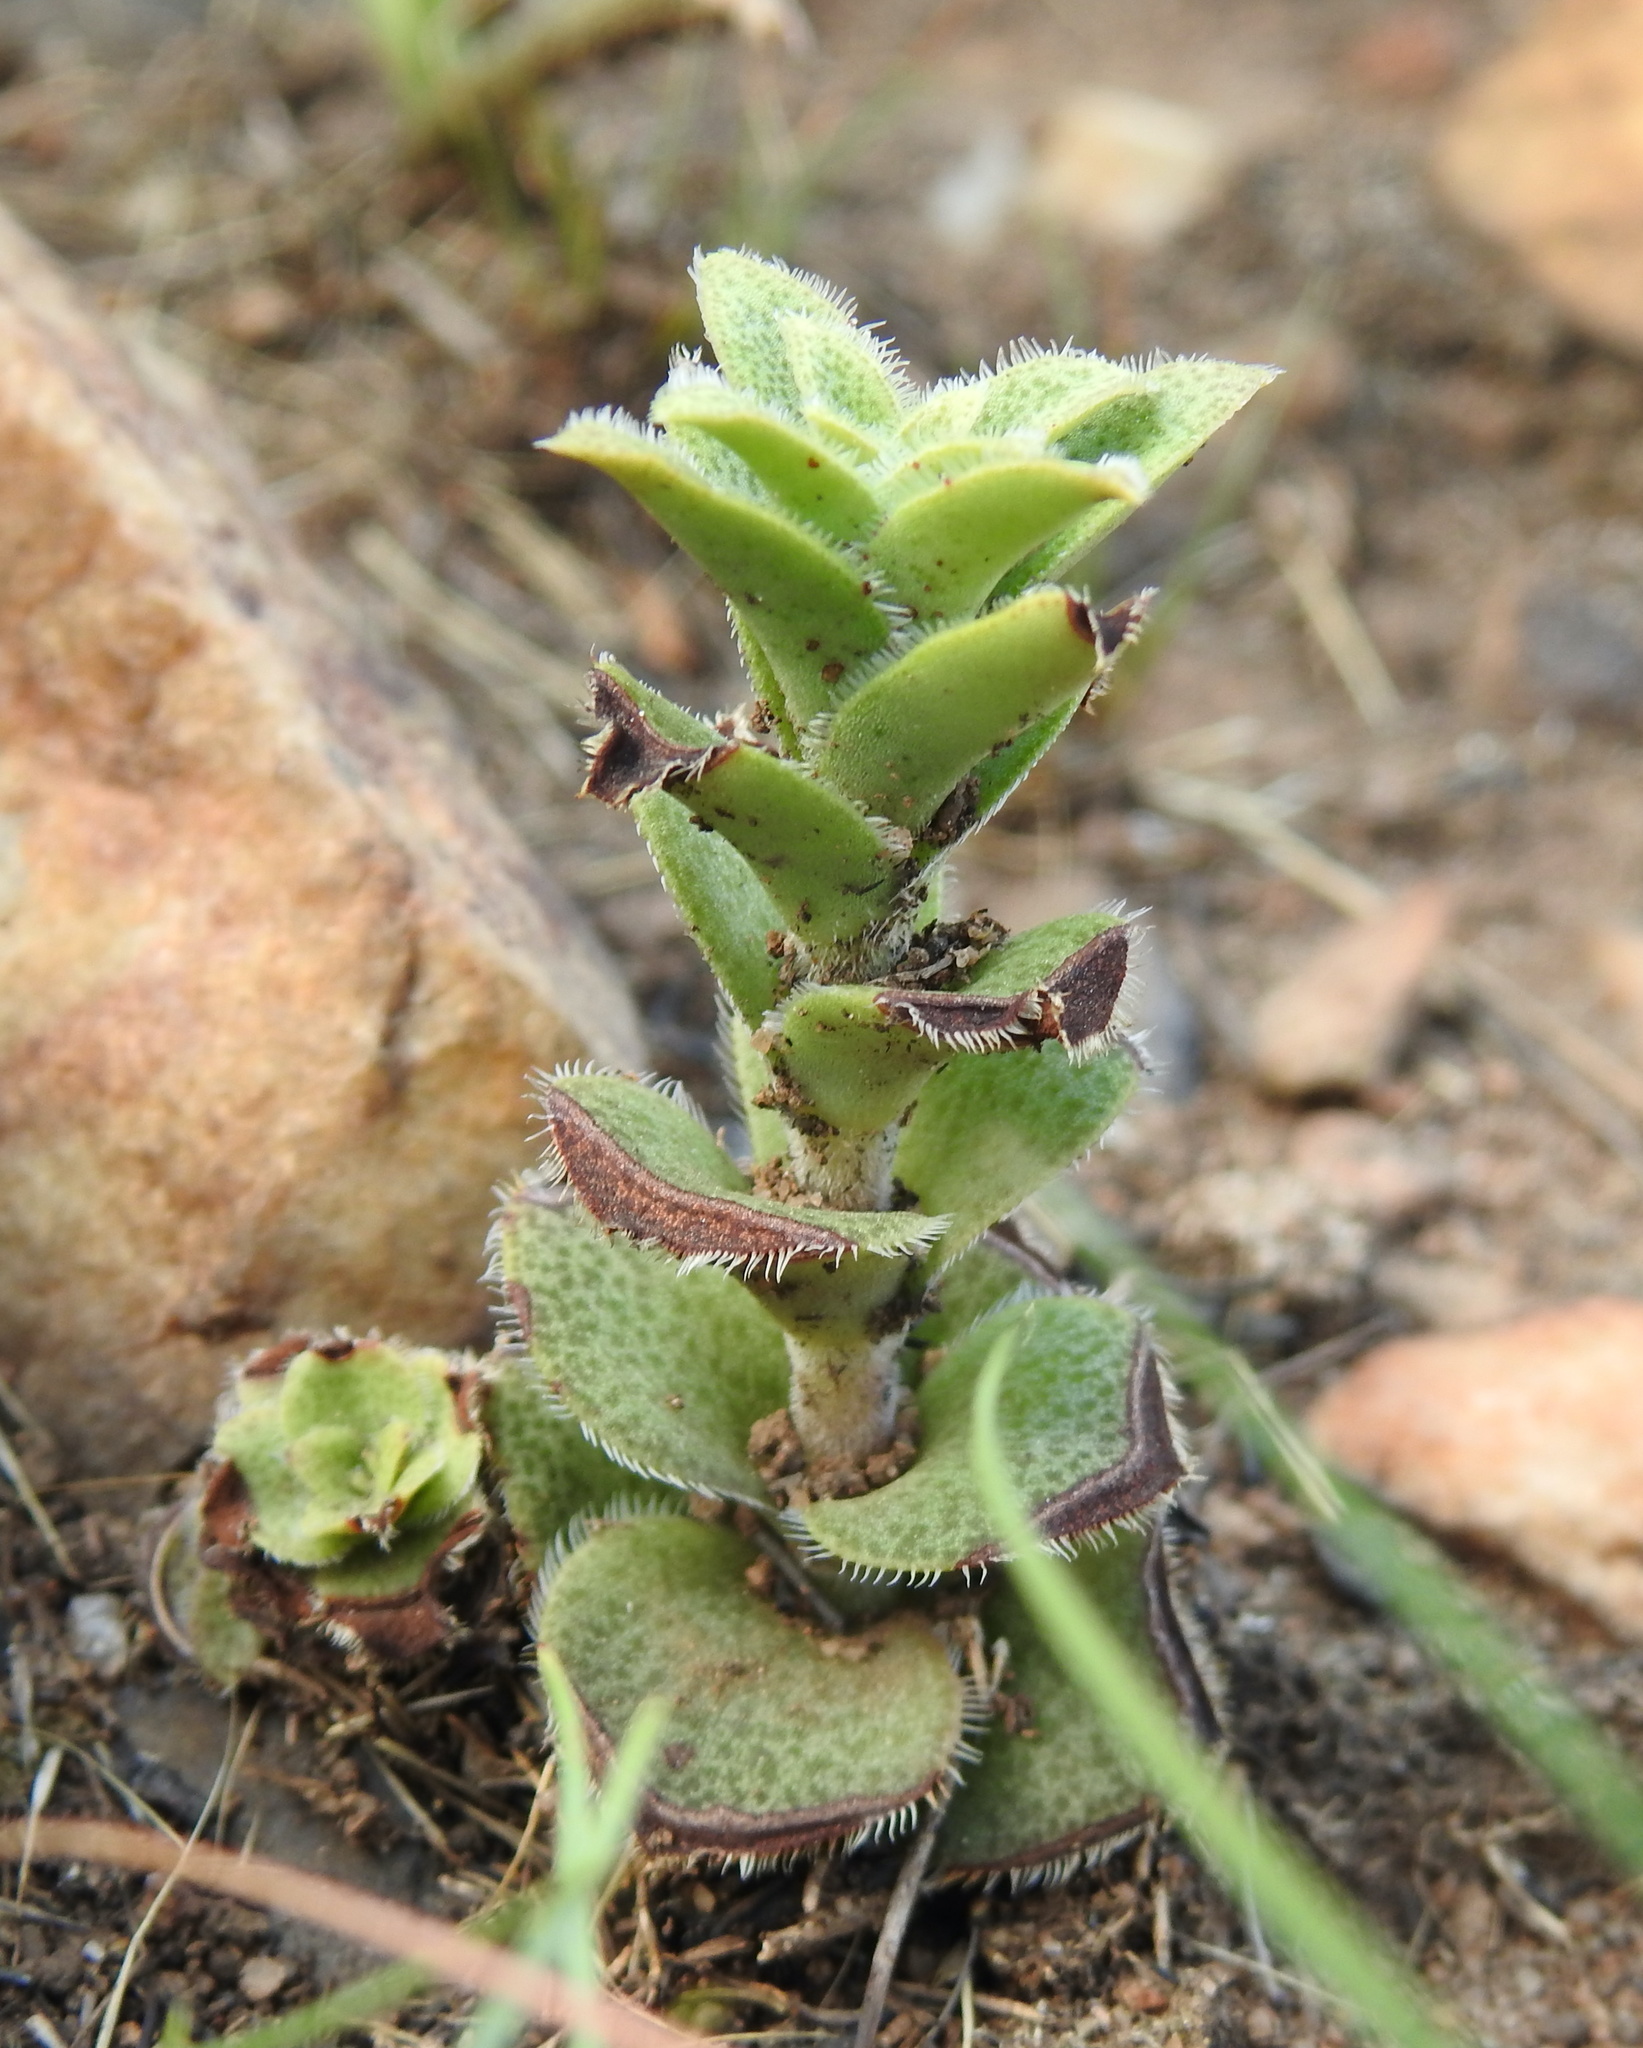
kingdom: Plantae
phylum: Tracheophyta
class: Magnoliopsida
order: Saxifragales
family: Crassulaceae
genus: Crassula
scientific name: Crassula setulosa
